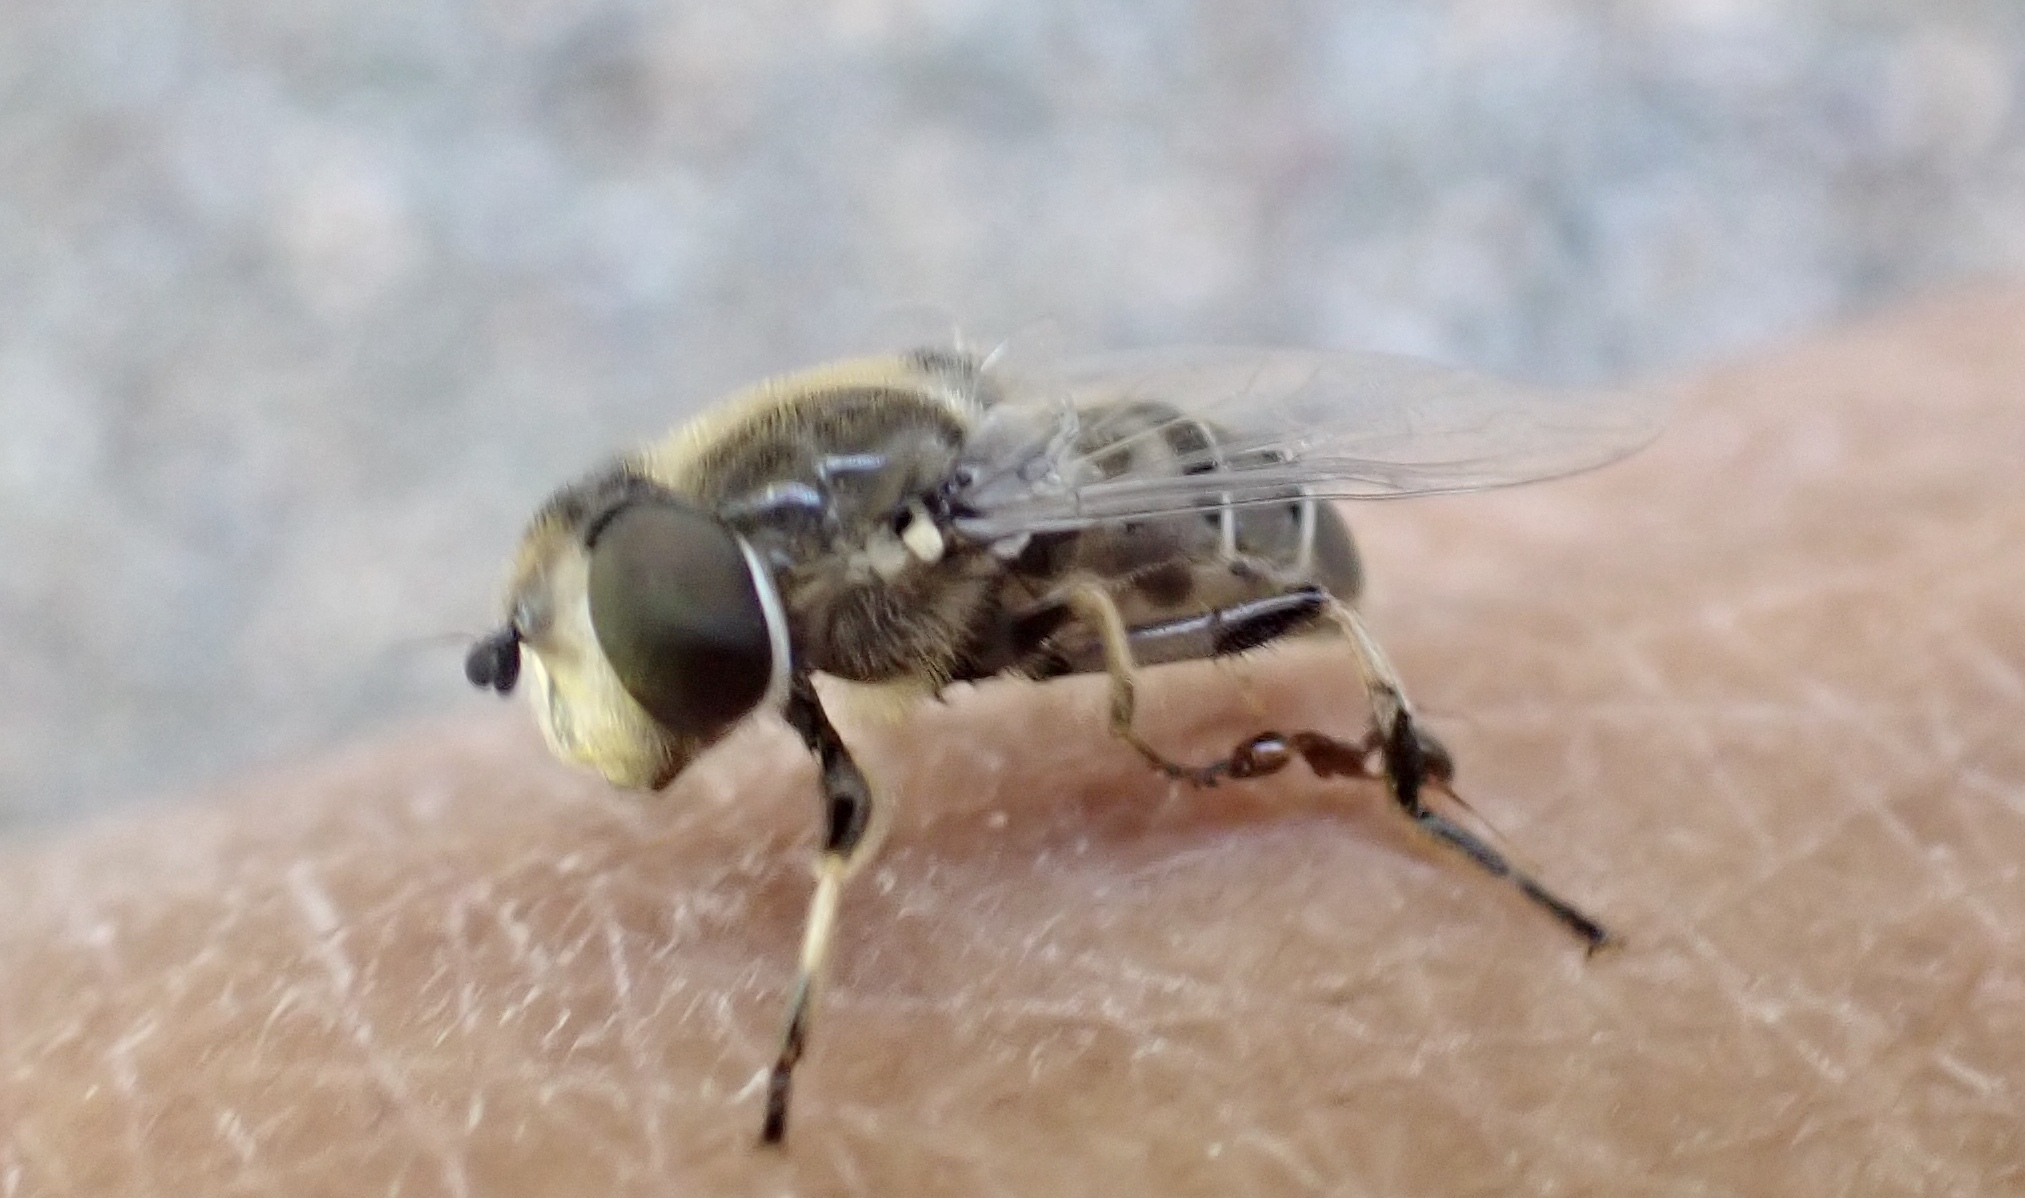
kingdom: Animalia
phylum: Arthropoda
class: Insecta
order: Diptera
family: Syrphidae
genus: Eristalis
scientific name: Eristalis dimidiata
